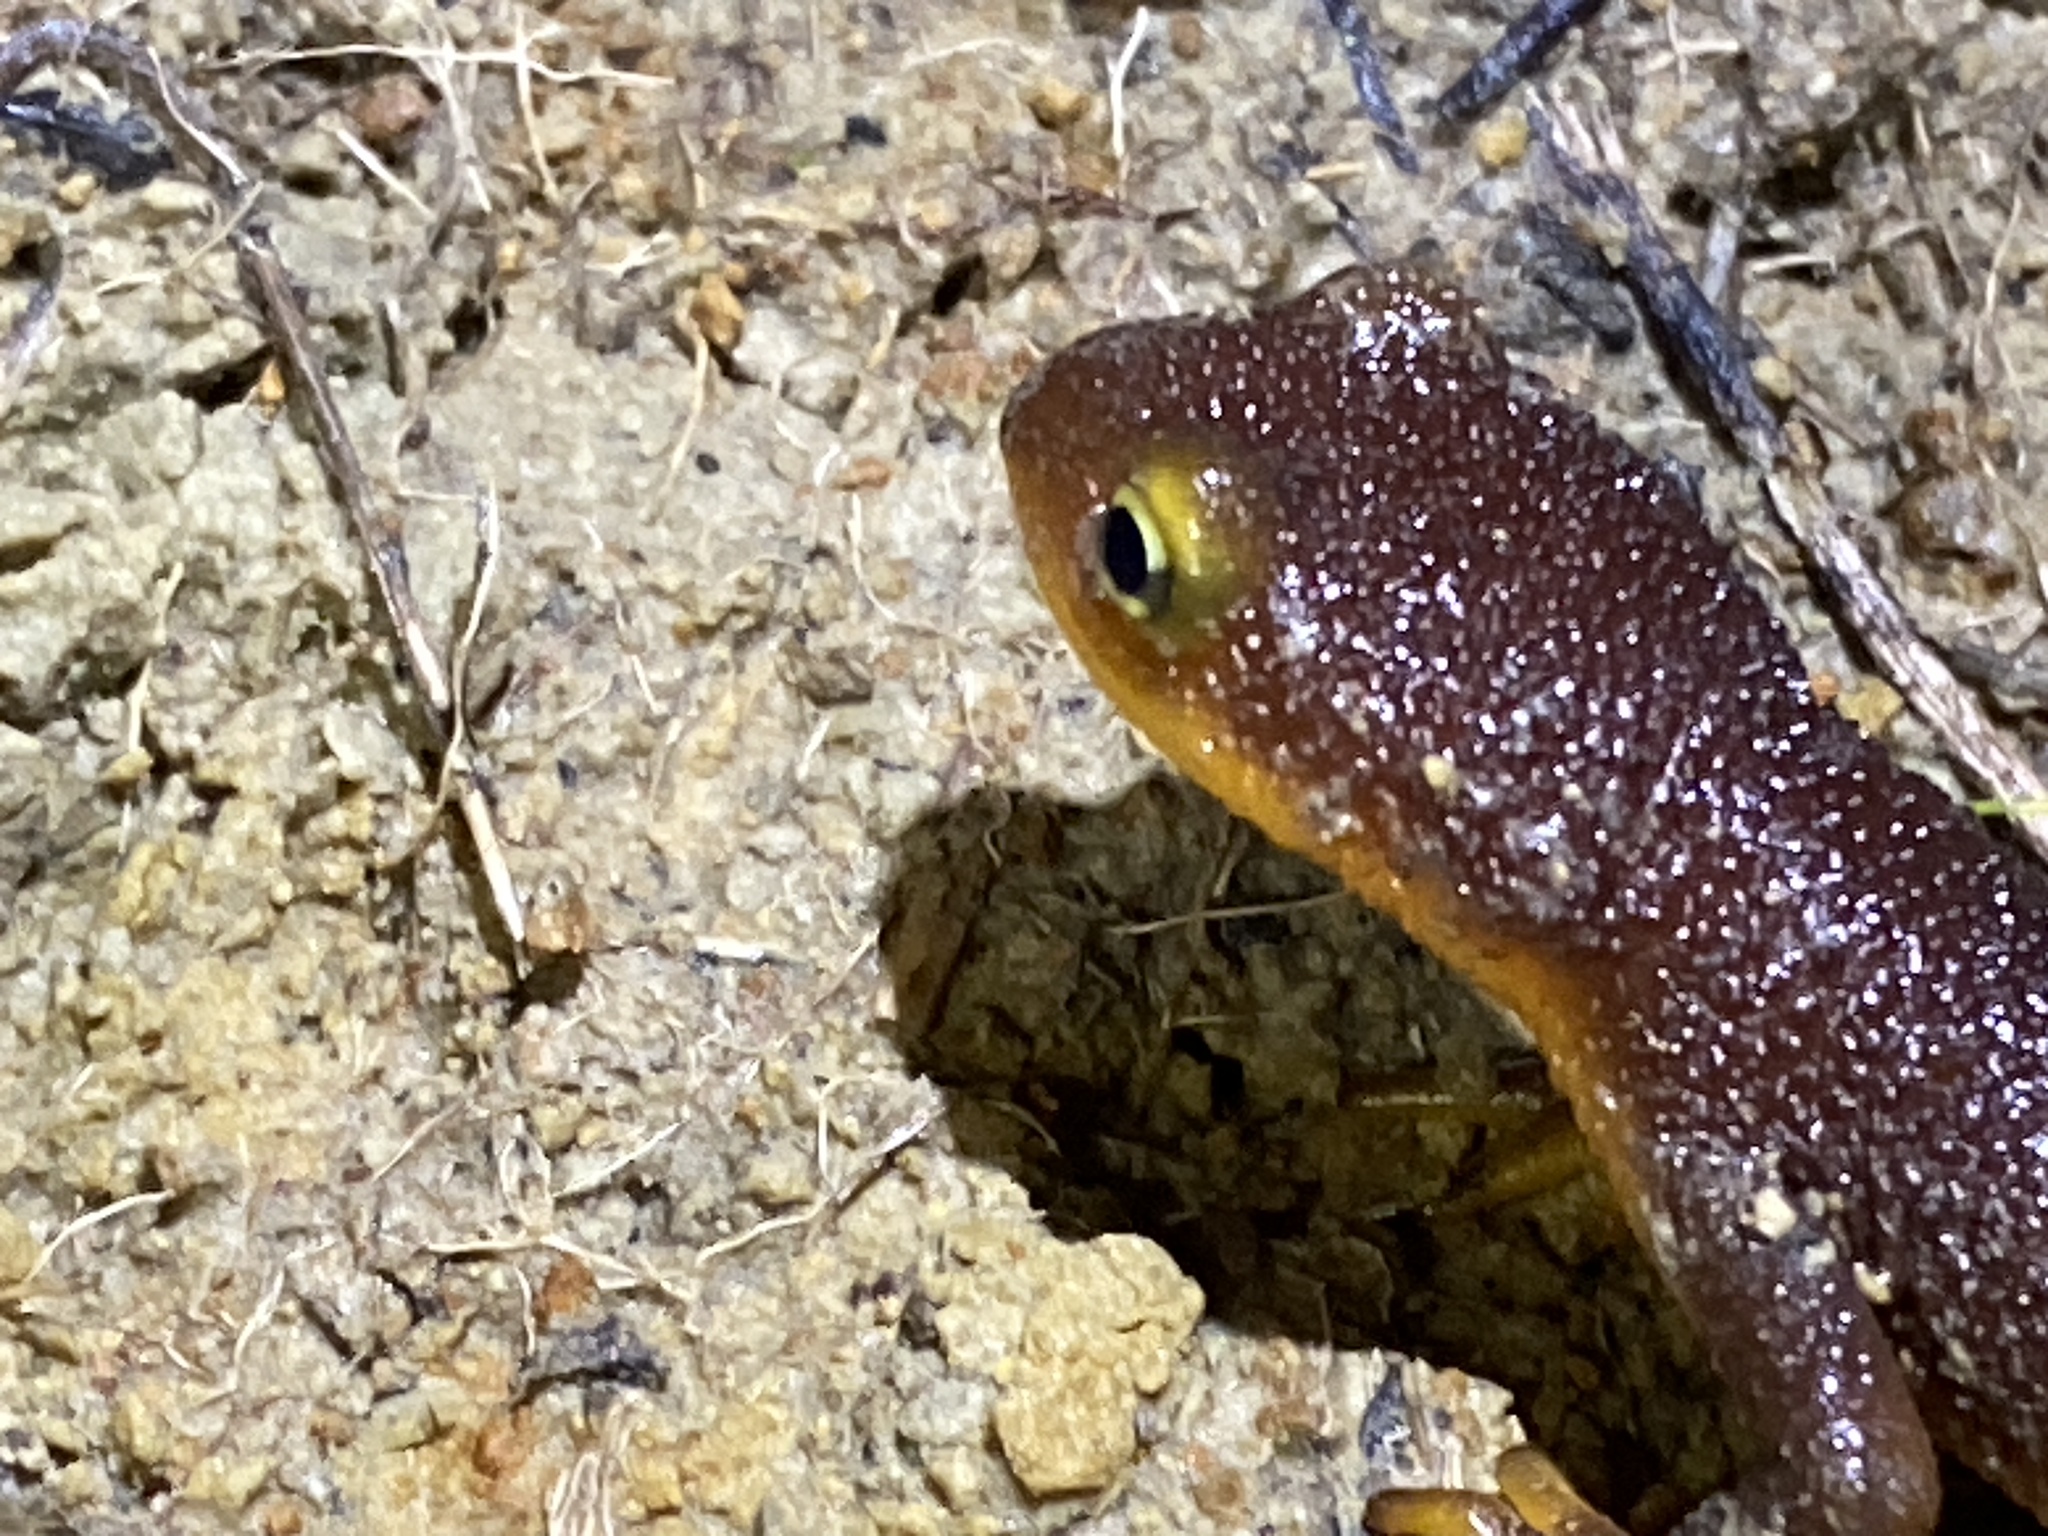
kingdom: Animalia
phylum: Chordata
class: Amphibia
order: Caudata
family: Salamandridae
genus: Taricha
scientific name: Taricha torosa
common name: California newt
